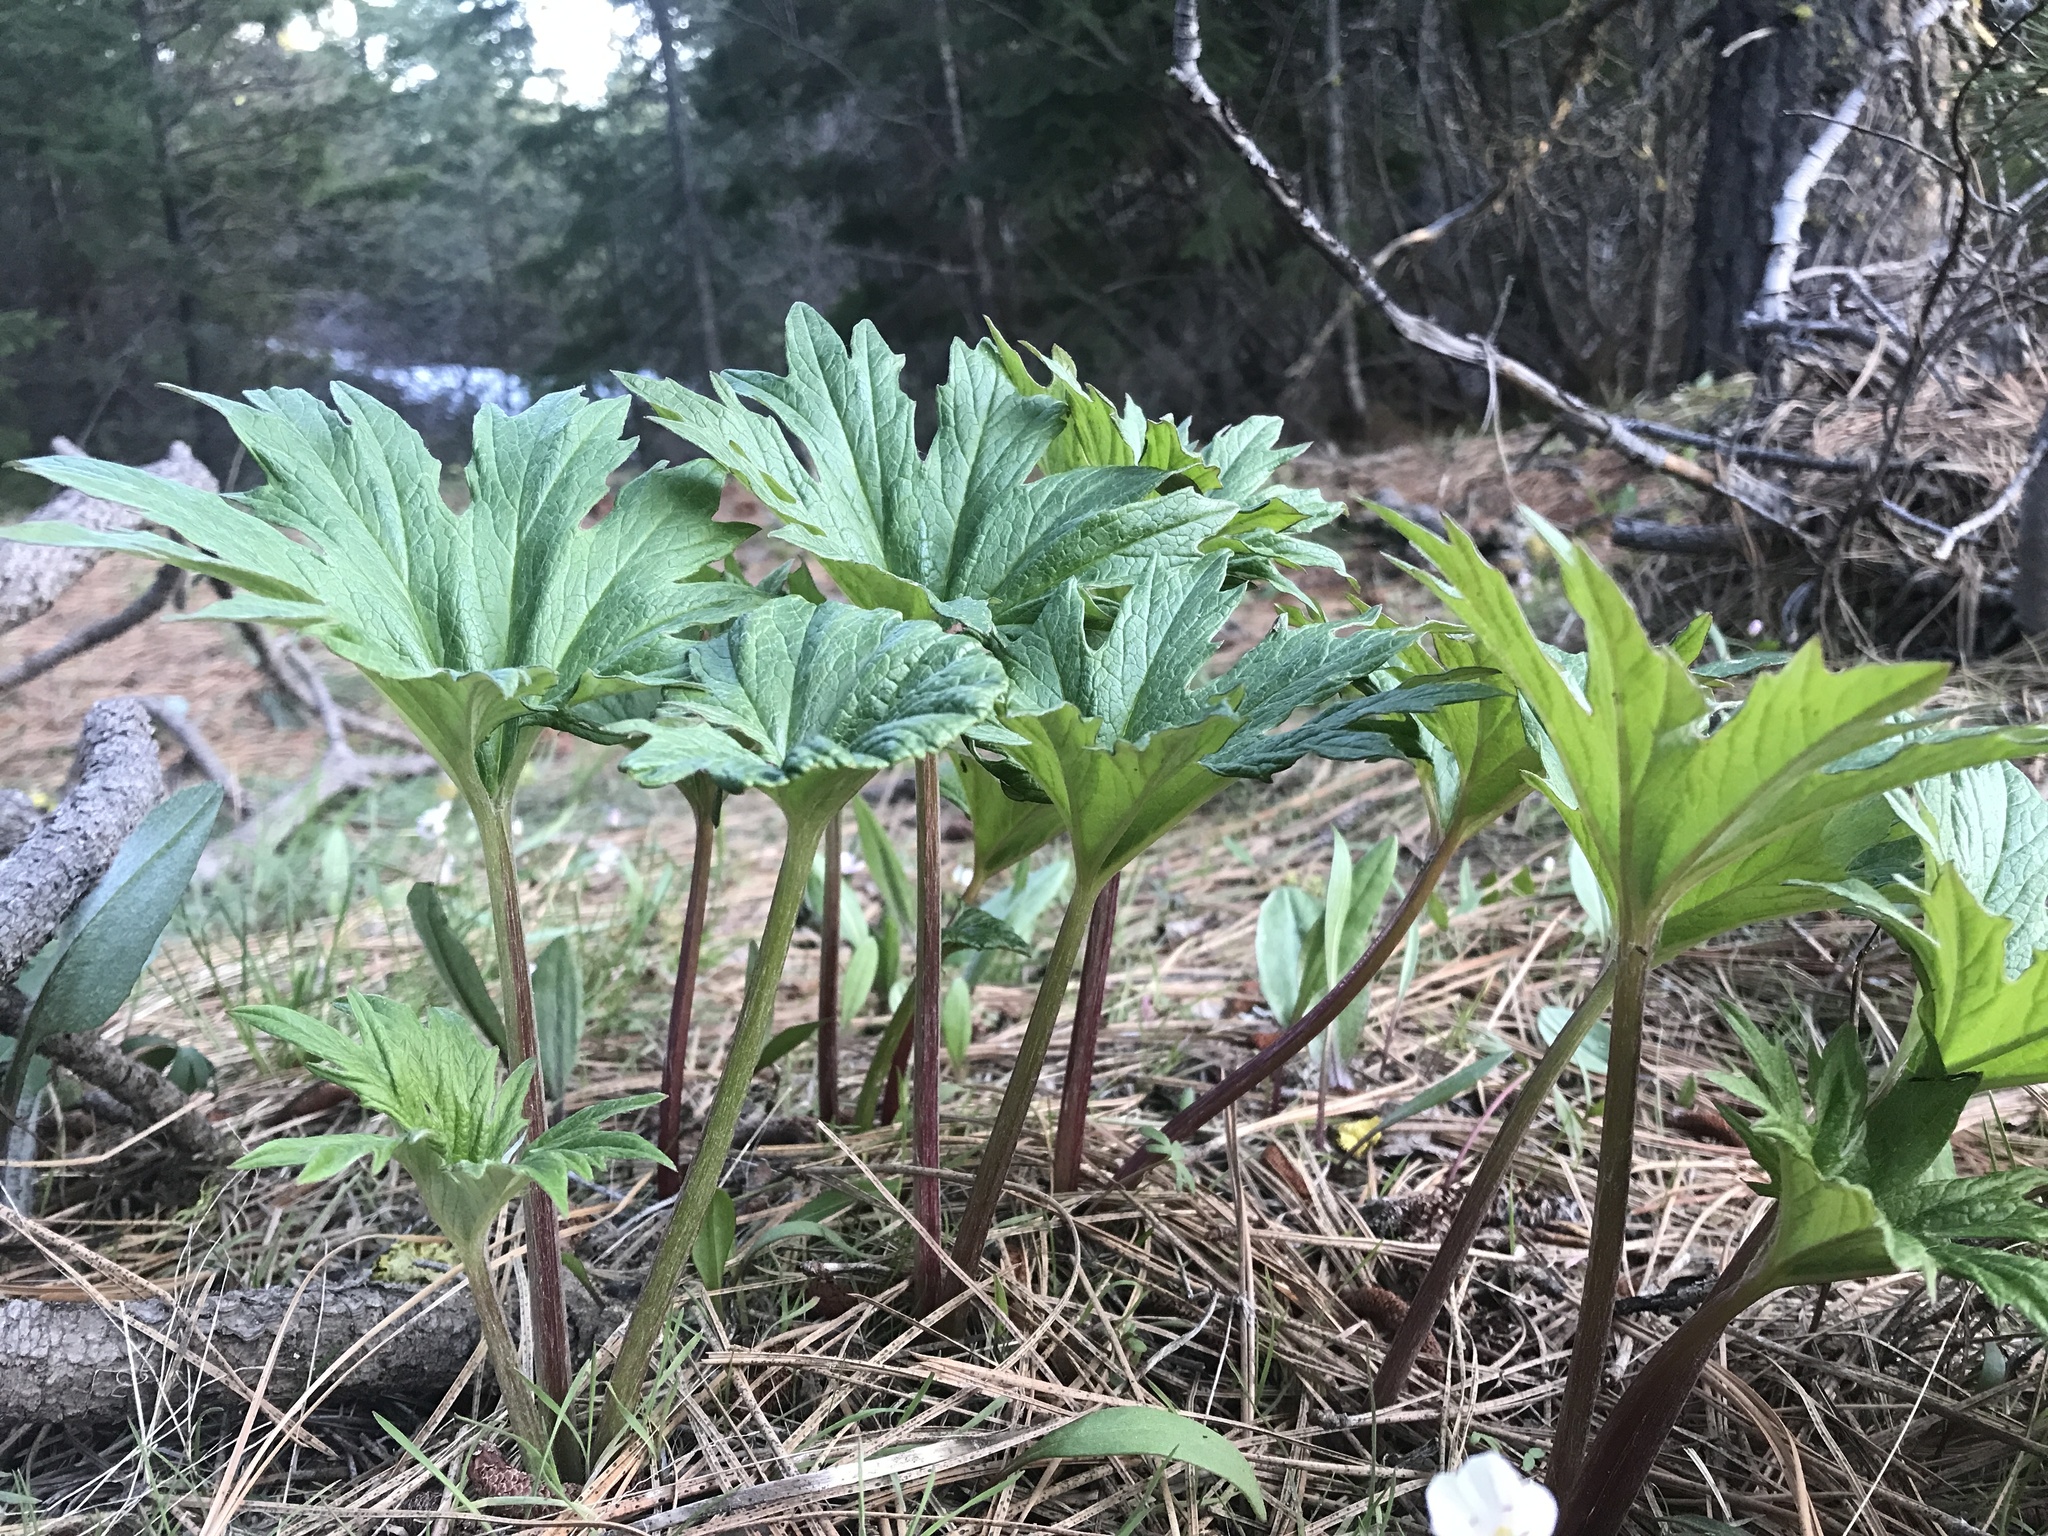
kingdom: Plantae
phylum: Tracheophyta
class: Magnoliopsida
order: Asterales
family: Asteraceae
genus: Cacaliopsis
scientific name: Cacaliopsis nardosmia
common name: Silvercrown
